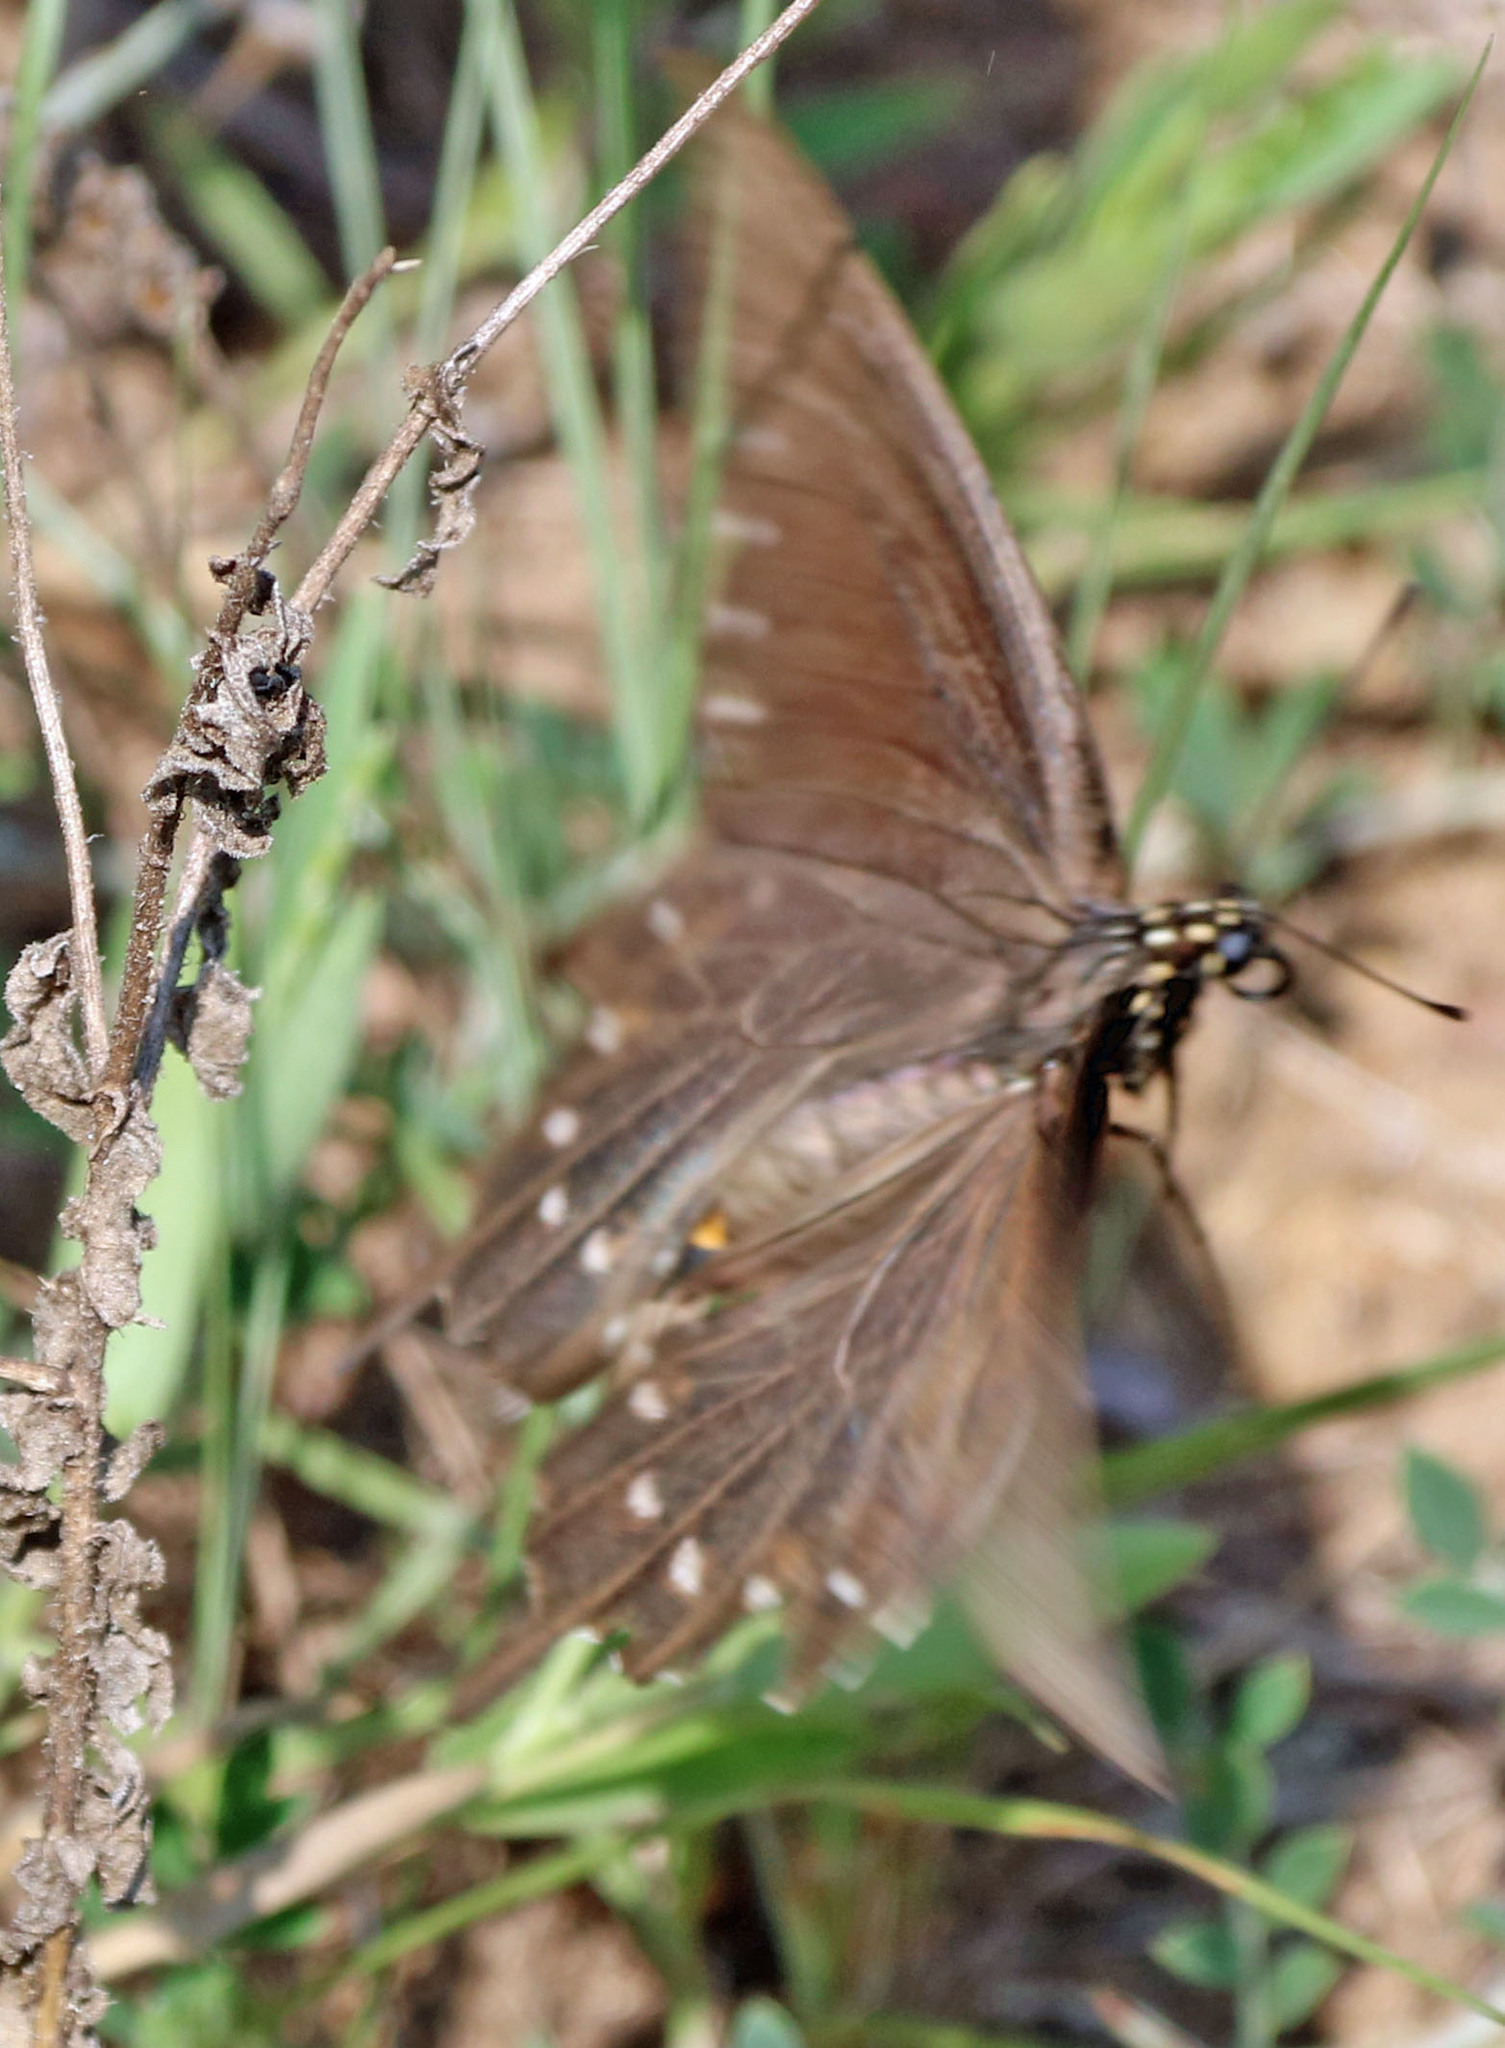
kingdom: Animalia
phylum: Arthropoda
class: Insecta
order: Lepidoptera
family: Papilionidae
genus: Battus
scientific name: Battus philenor
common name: Pipevine swallowtail
